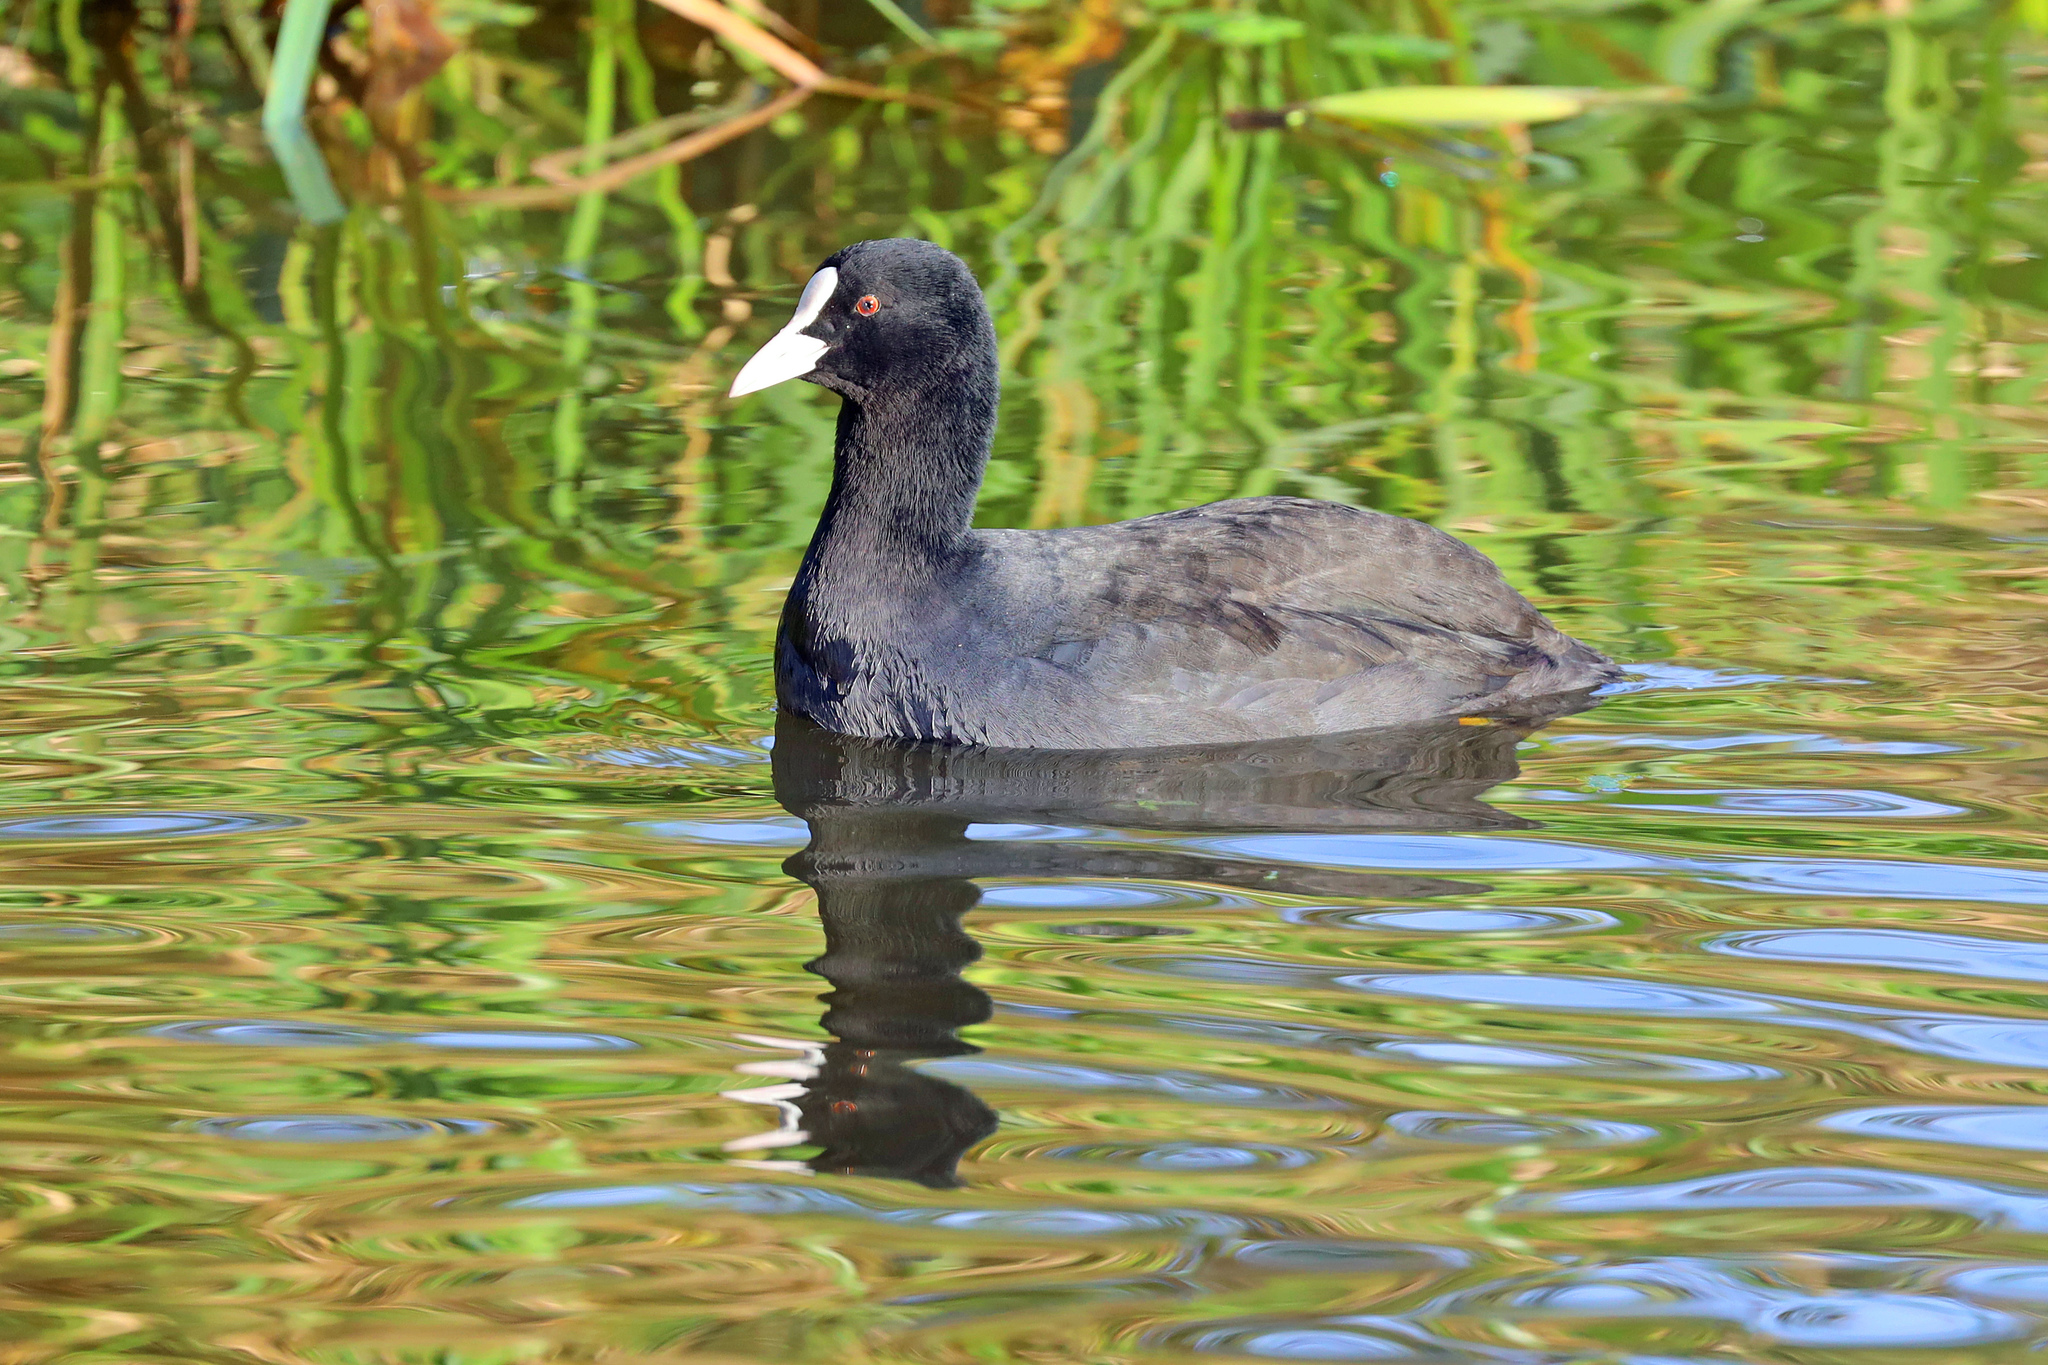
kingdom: Animalia
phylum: Chordata
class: Aves
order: Gruiformes
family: Rallidae
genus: Fulica
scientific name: Fulica atra
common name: Eurasian coot
